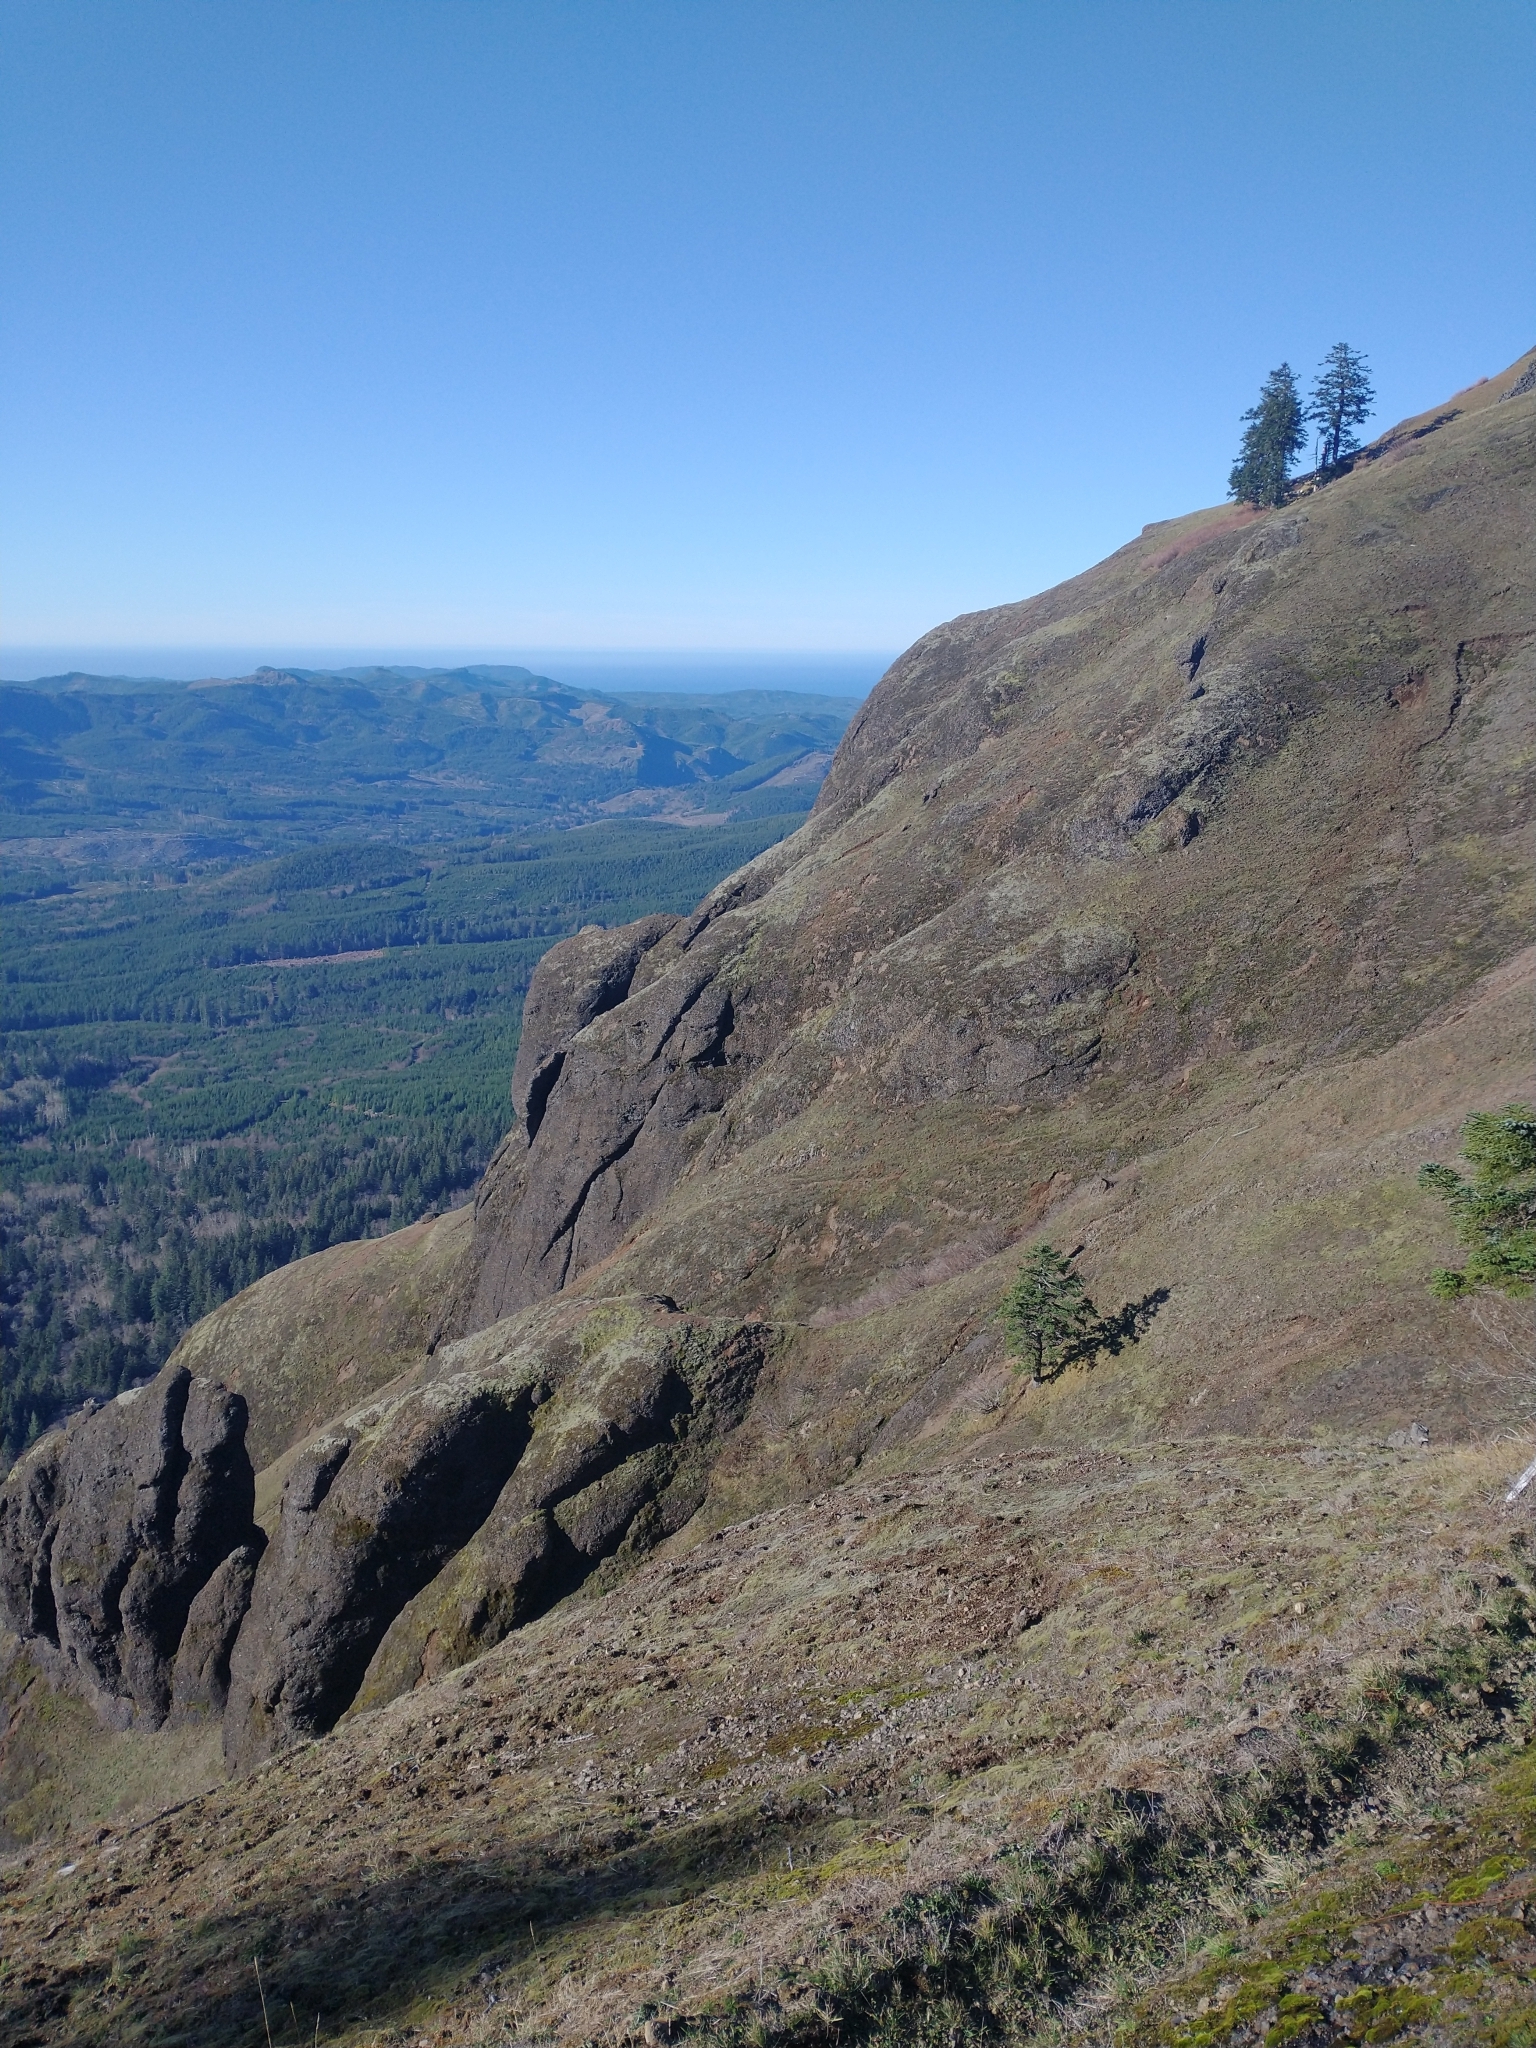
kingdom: Plantae
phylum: Tracheophyta
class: Pinopsida
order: Pinales
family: Pinaceae
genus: Abies
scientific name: Abies procera
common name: Noble fir
